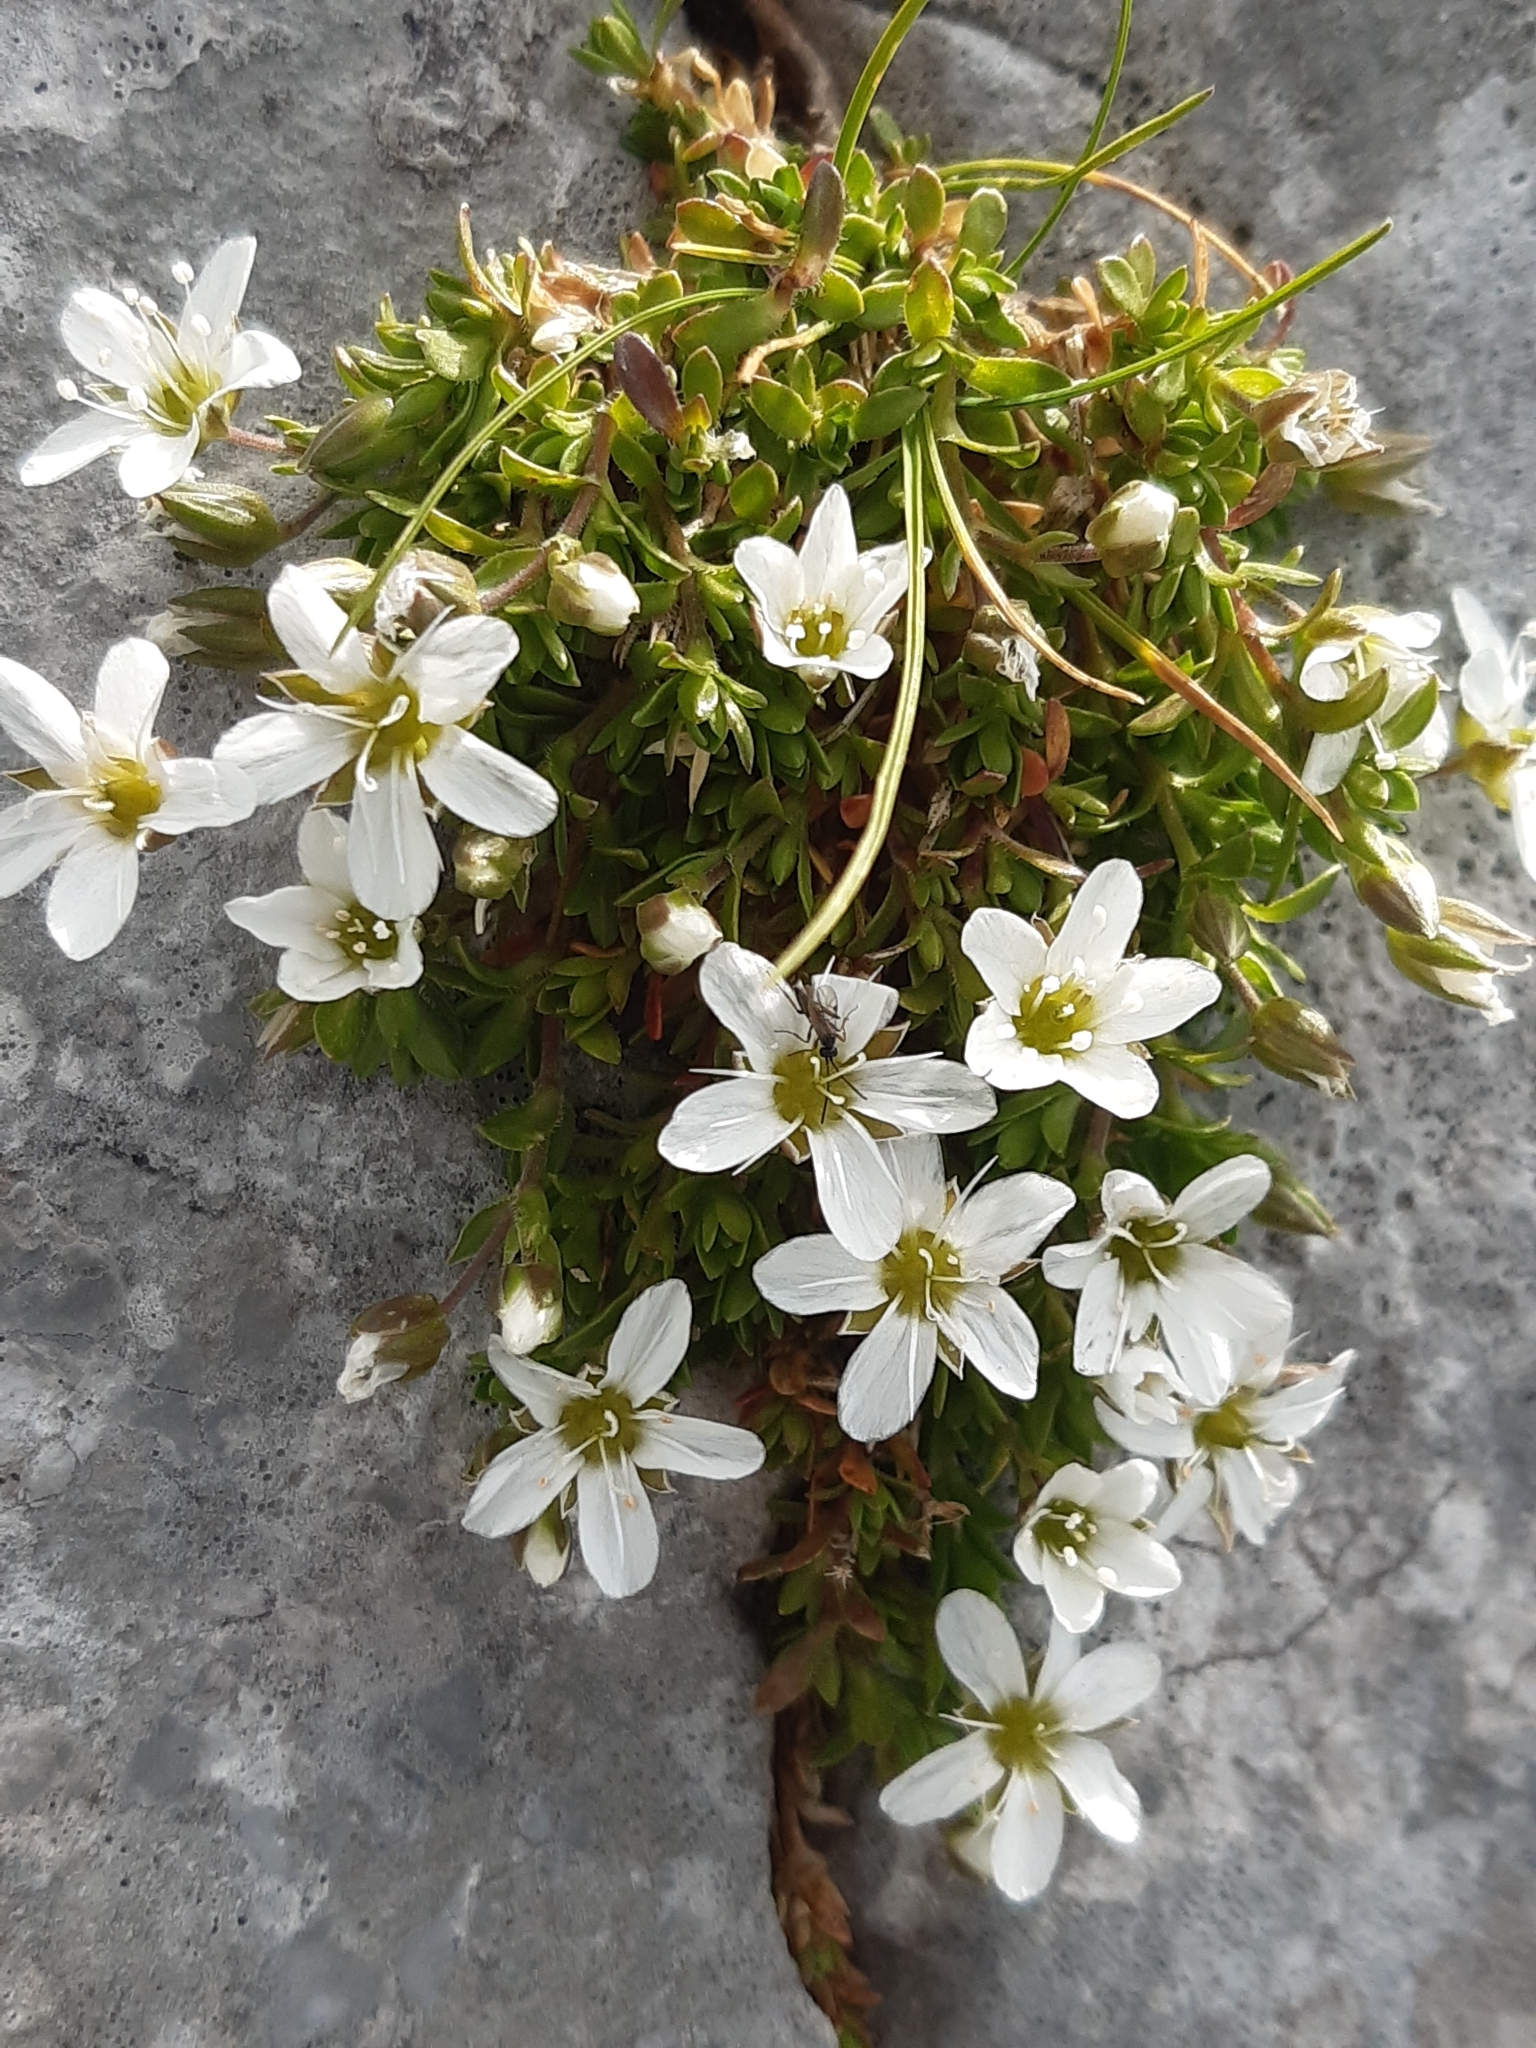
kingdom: Plantae
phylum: Tracheophyta
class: Magnoliopsida
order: Caryophyllales
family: Caryophyllaceae
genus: Arenaria
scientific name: Arenaria ciliata
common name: Fringed sandwort
